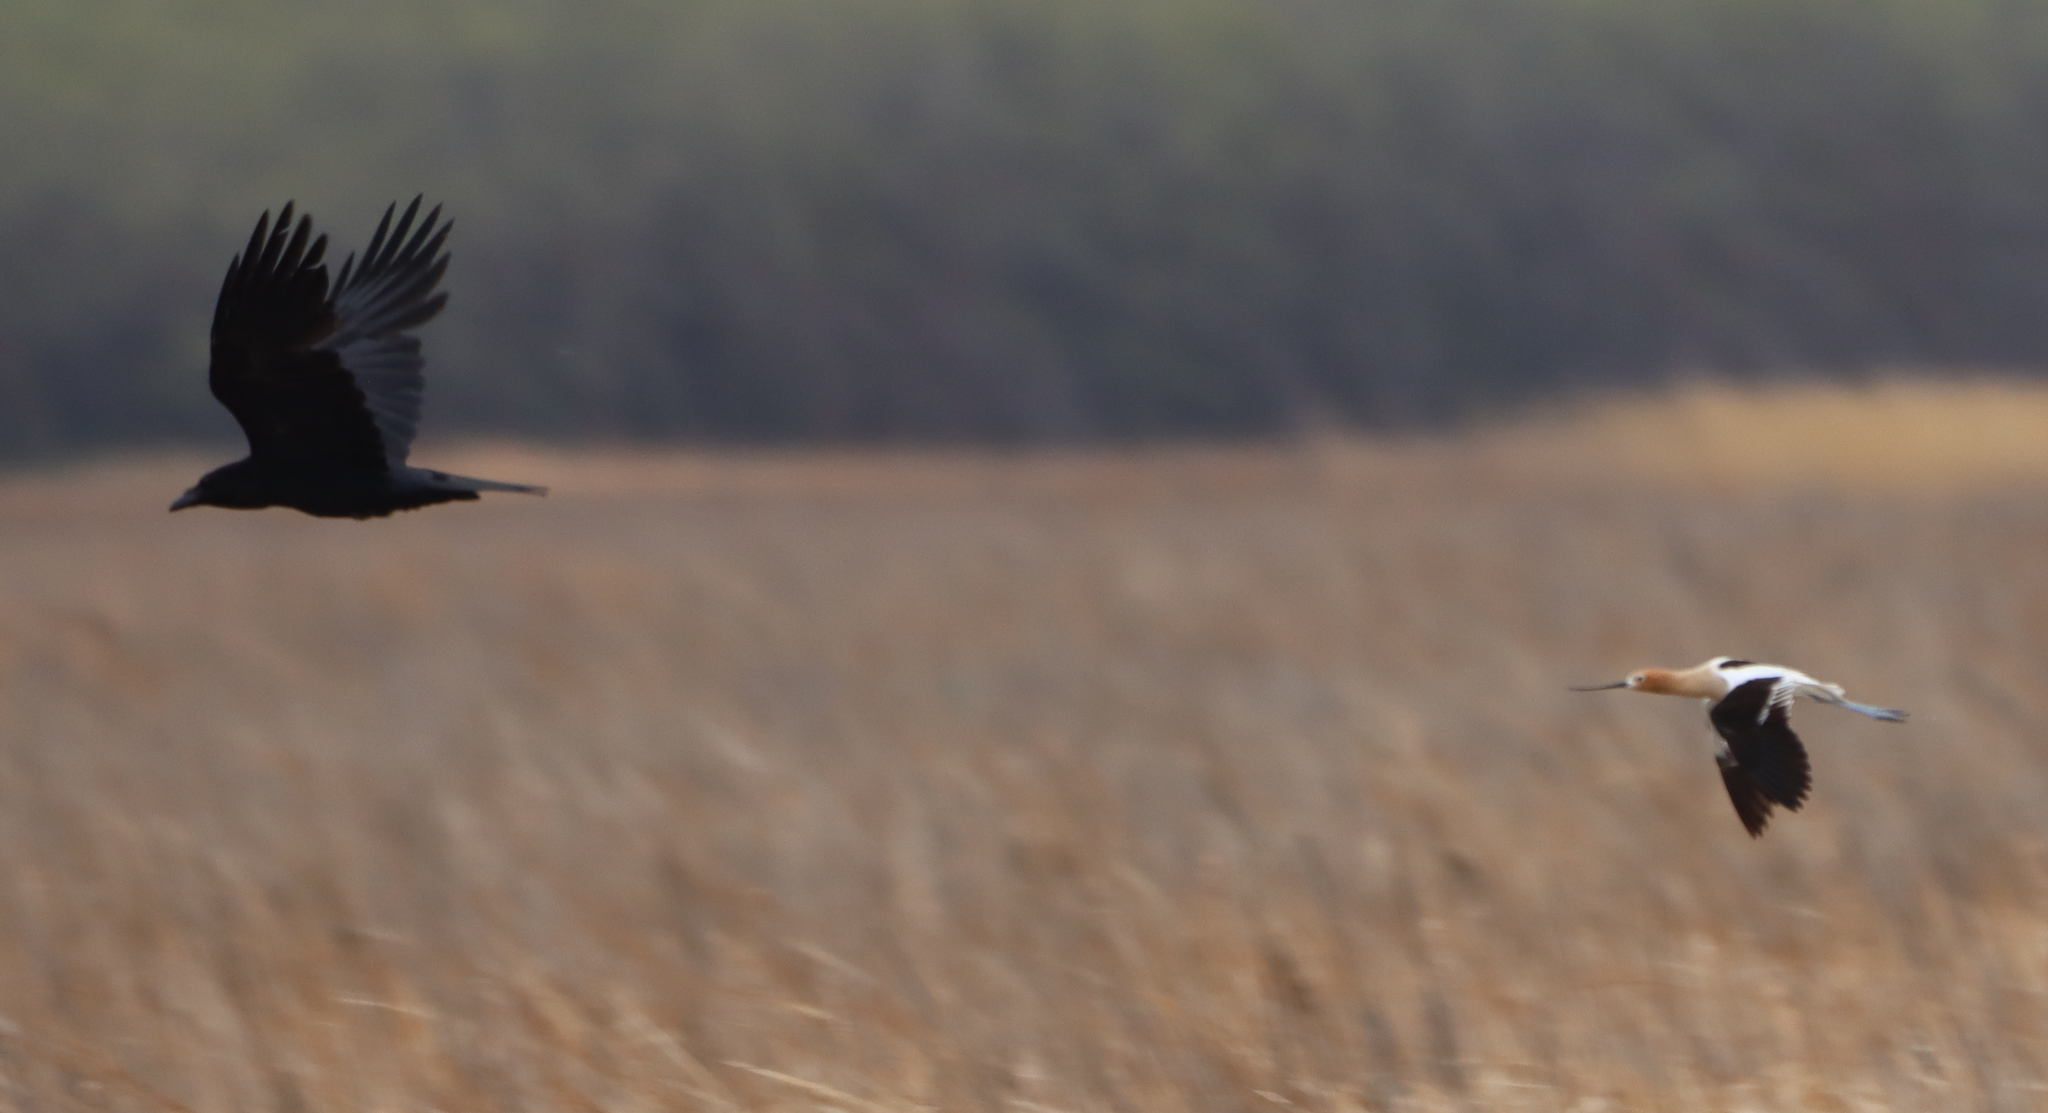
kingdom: Animalia
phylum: Chordata
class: Aves
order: Charadriiformes
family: Recurvirostridae
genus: Recurvirostra
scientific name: Recurvirostra americana
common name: American avocet
